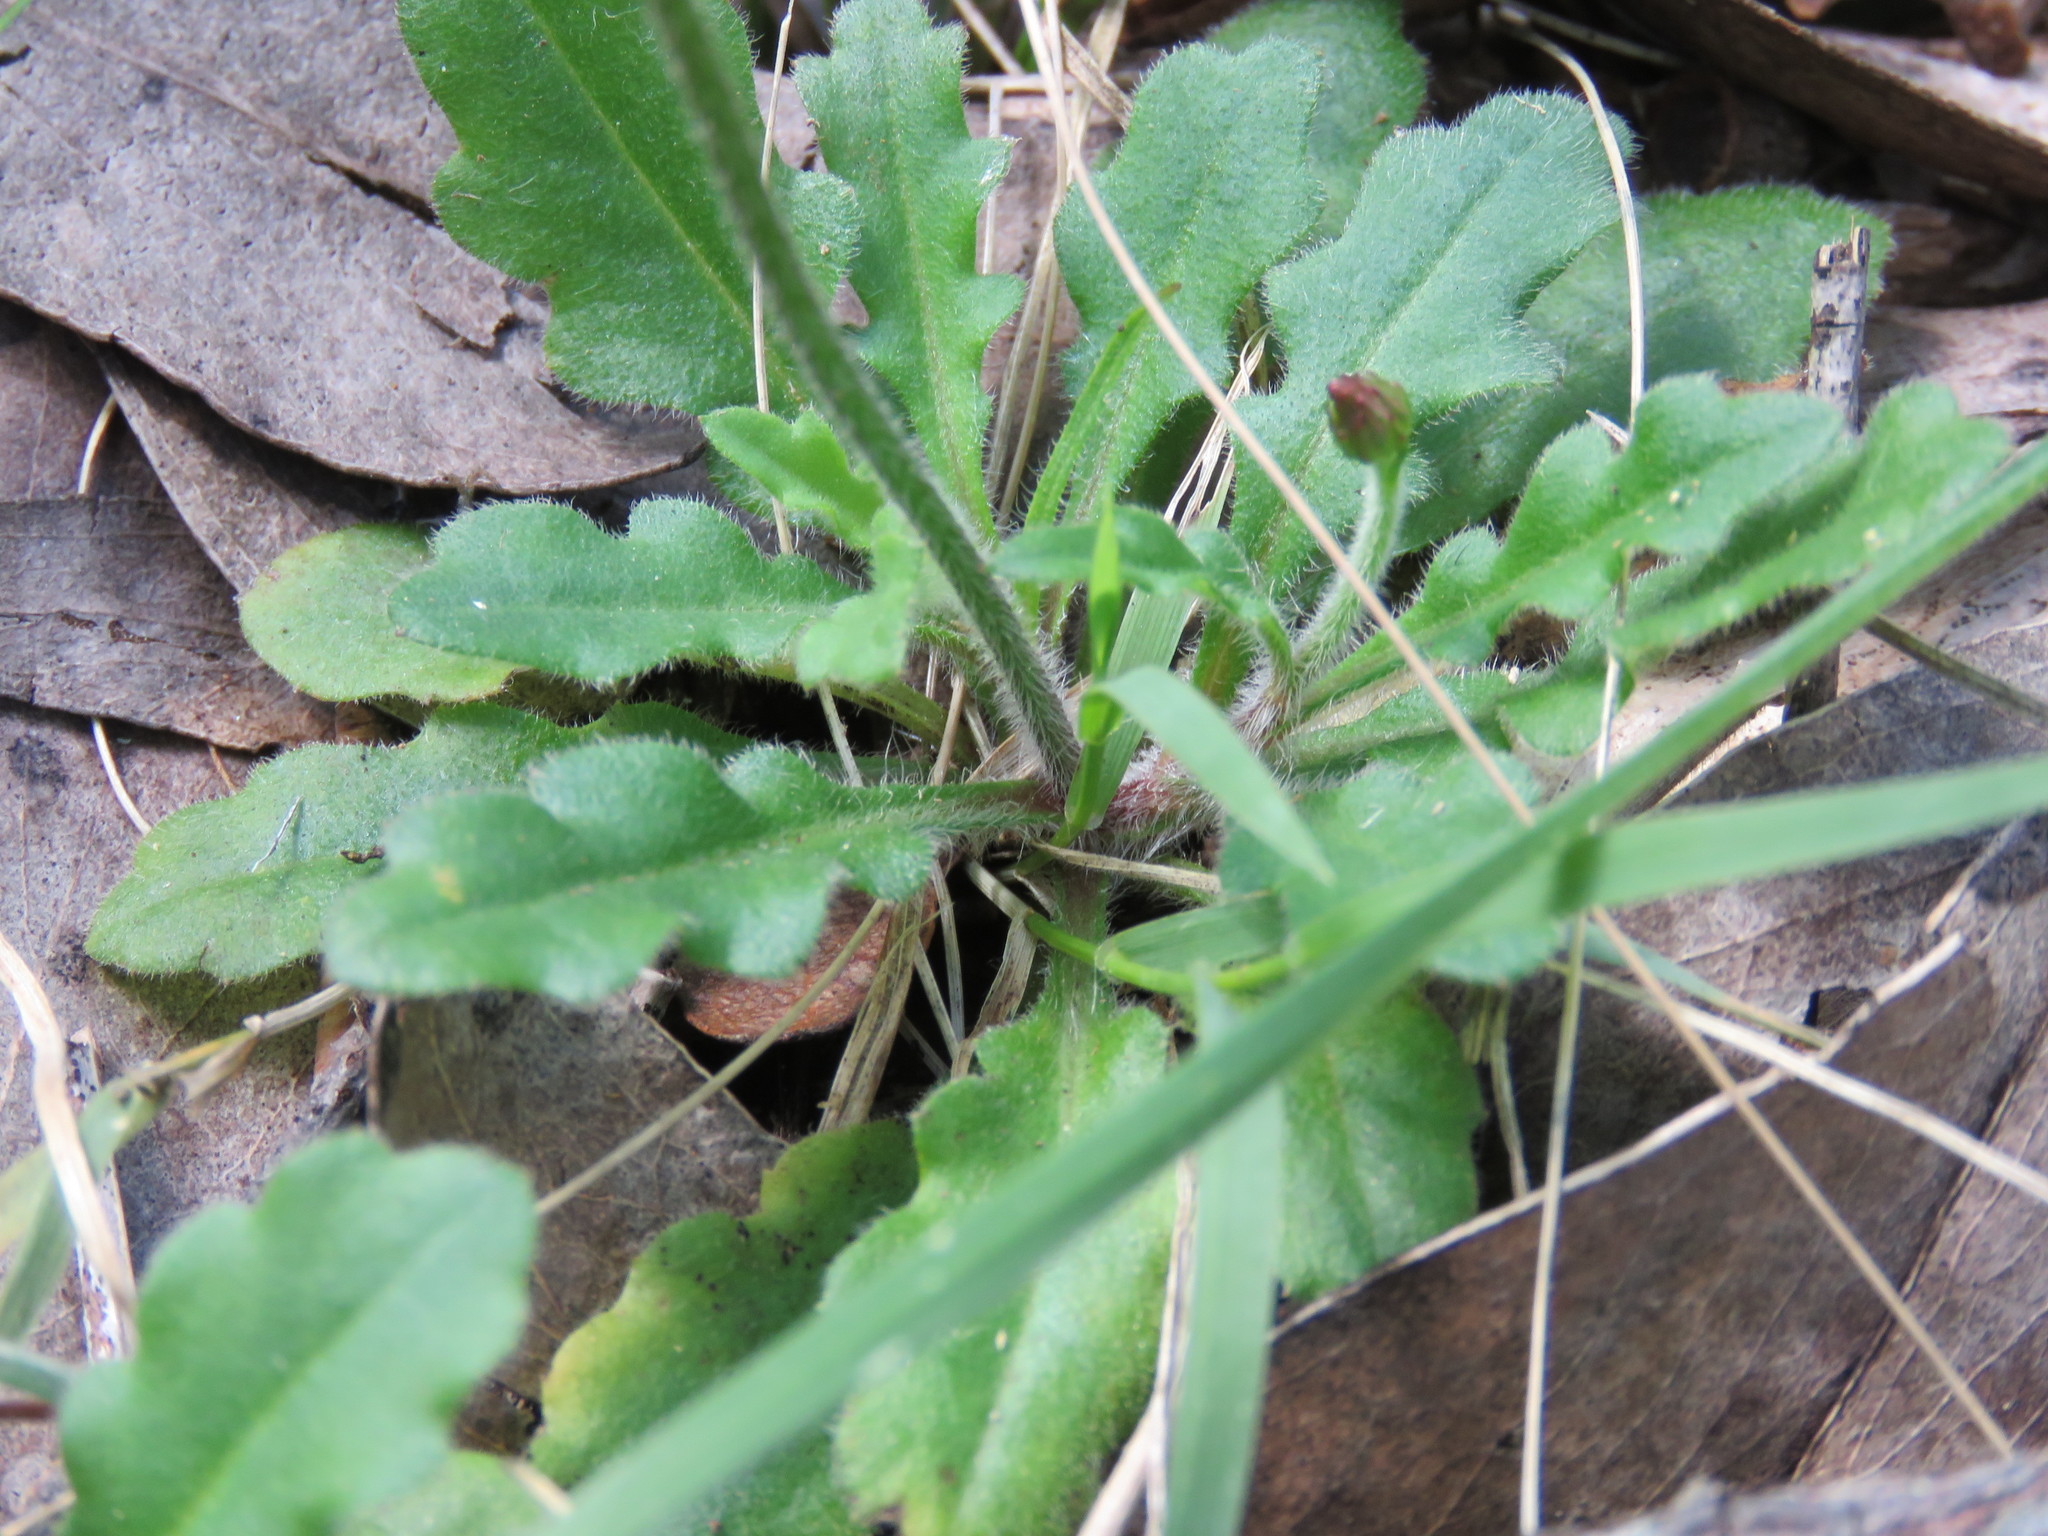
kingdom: Plantae
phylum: Tracheophyta
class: Magnoliopsida
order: Asterales
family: Asteraceae
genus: Lagenophora
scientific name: Lagenophora stipitata
